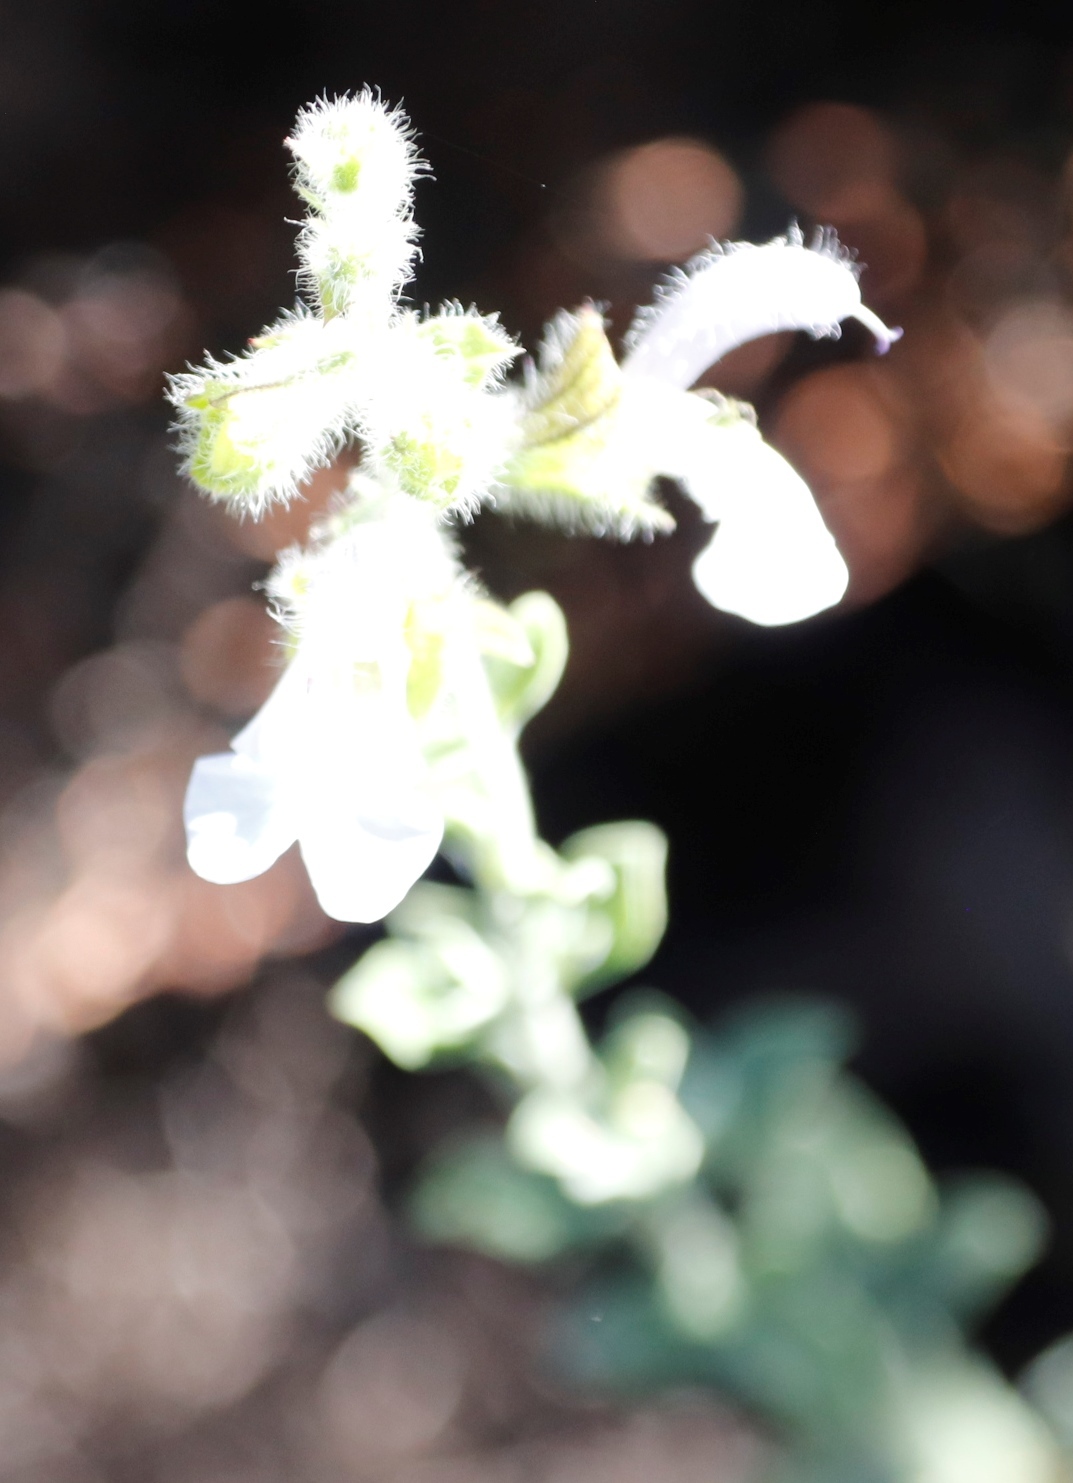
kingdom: Plantae
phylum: Tracheophyta
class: Magnoliopsida
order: Lamiales
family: Lamiaceae
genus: Salvia
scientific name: Salvia africana
